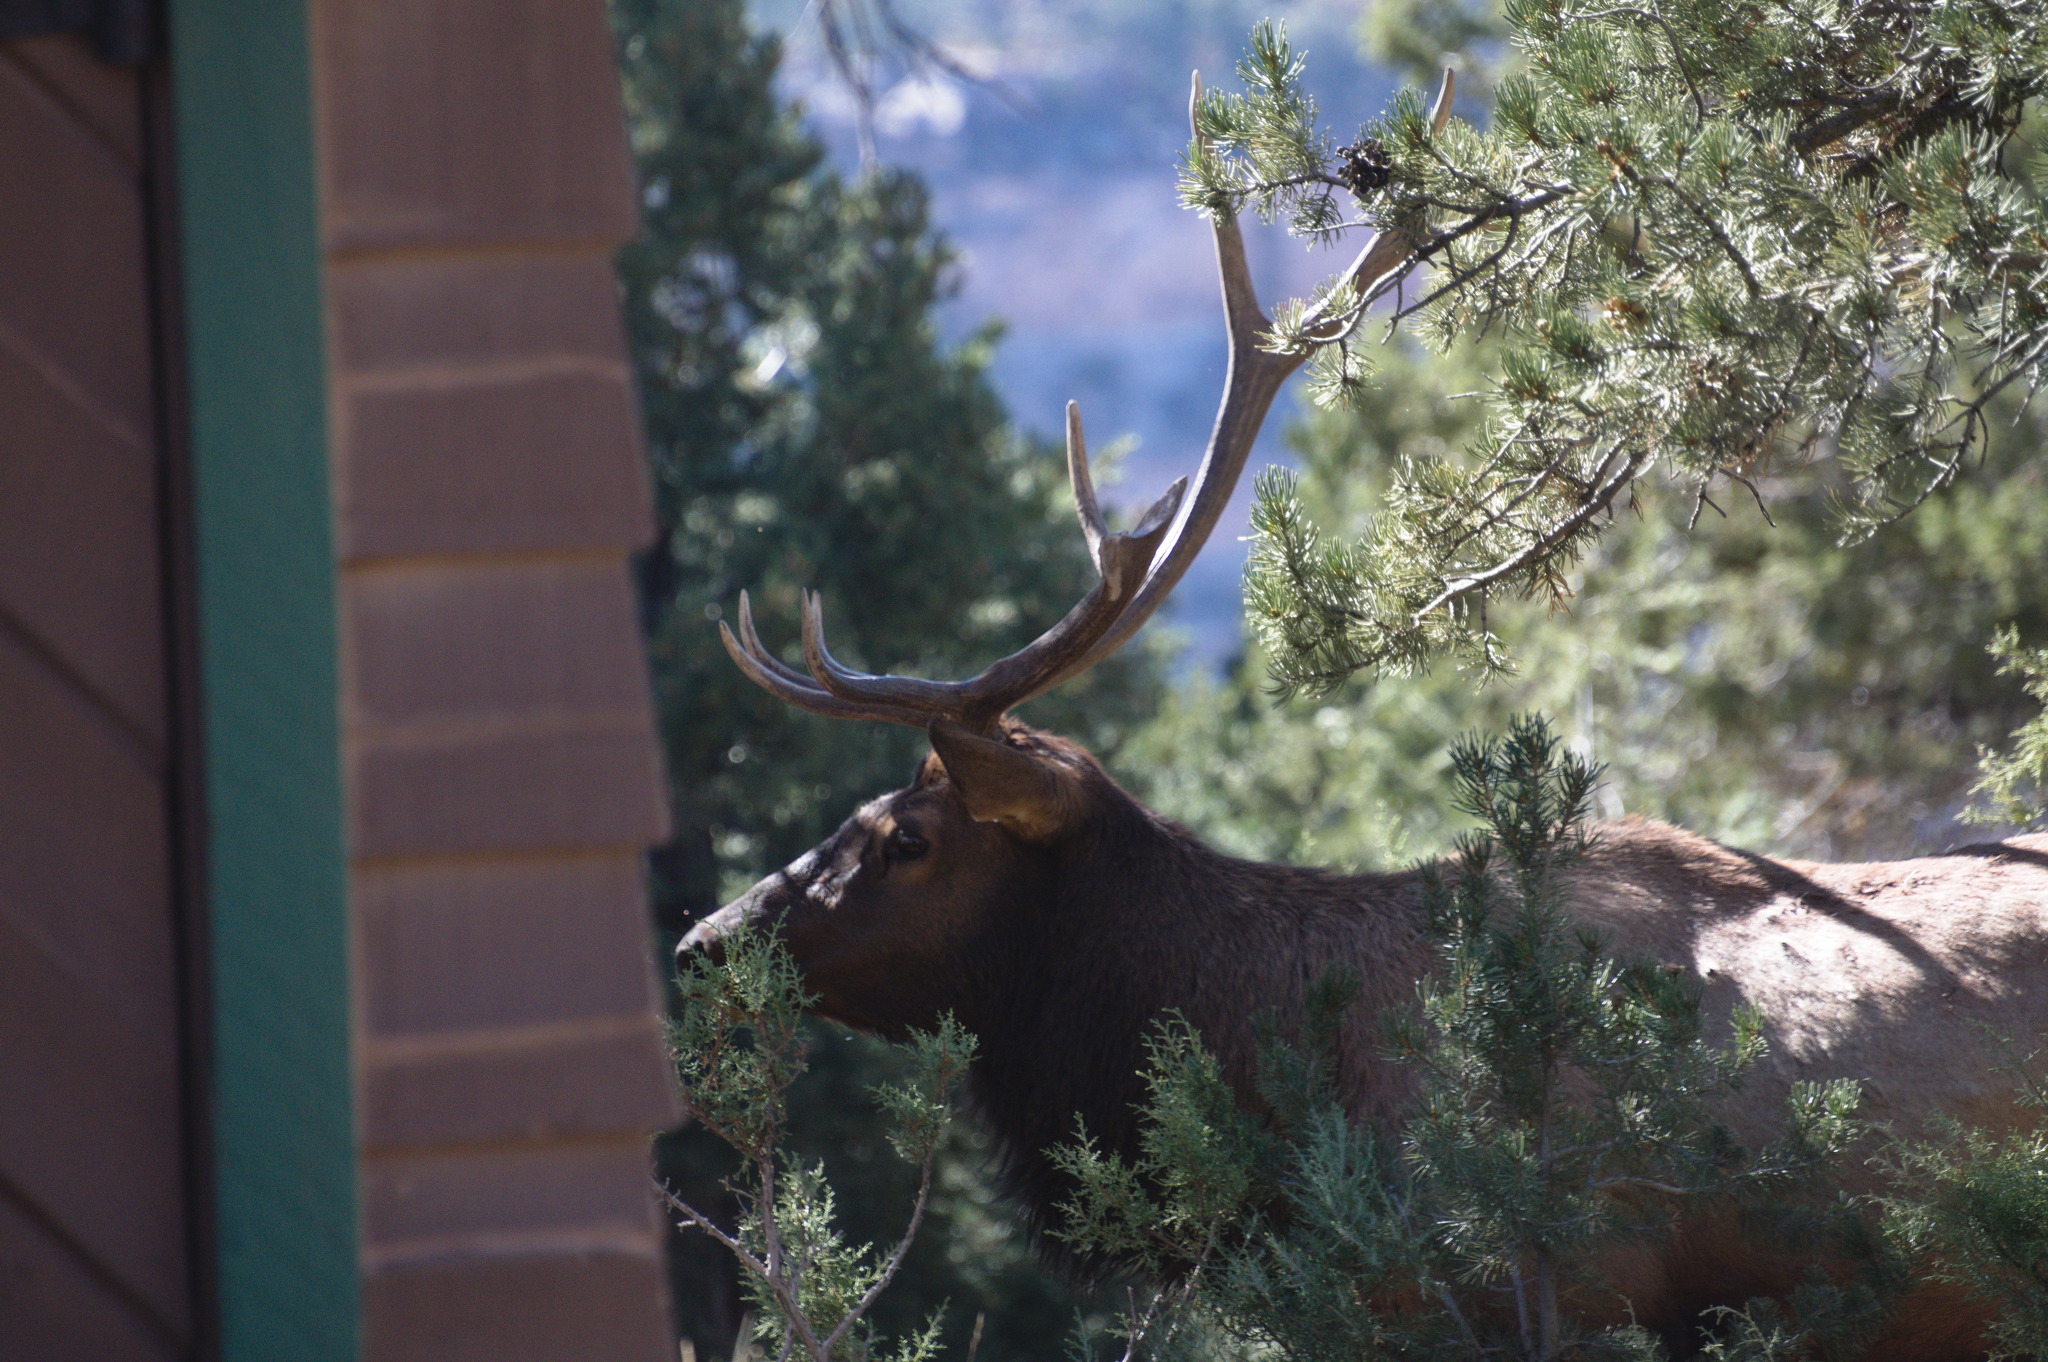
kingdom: Animalia
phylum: Chordata
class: Mammalia
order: Artiodactyla
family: Cervidae
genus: Cervus
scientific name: Cervus elaphus
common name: Red deer
